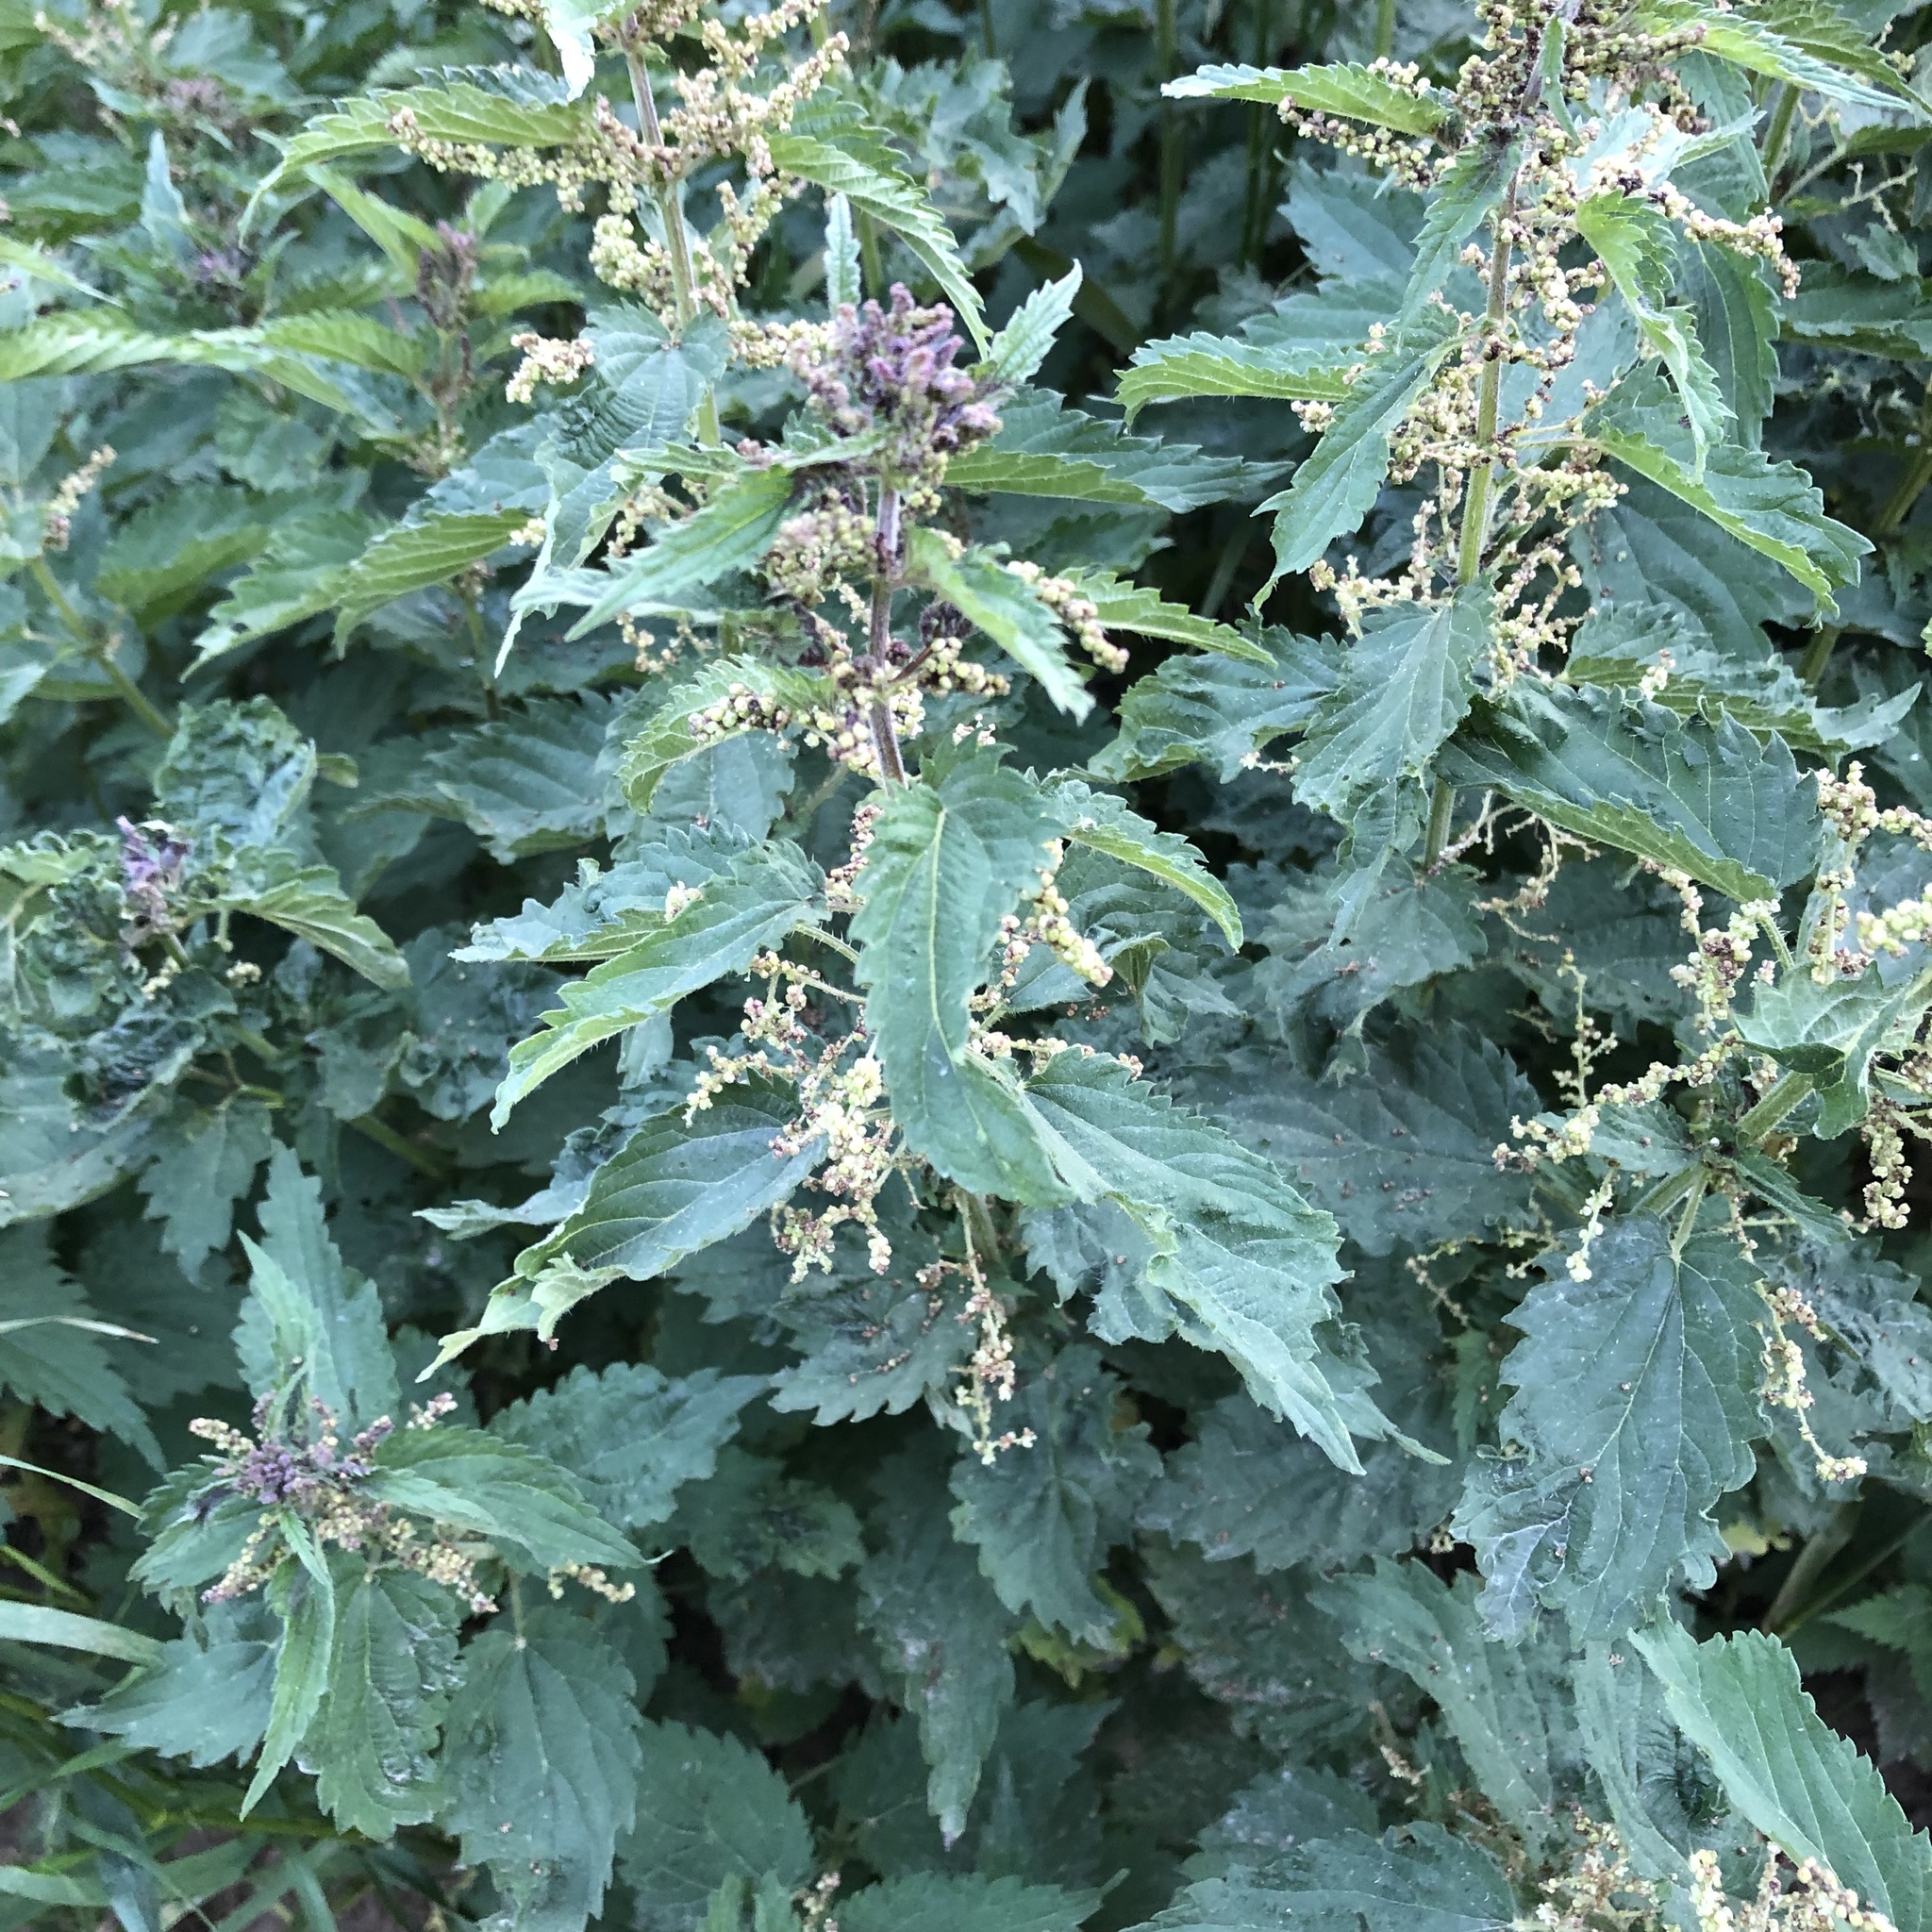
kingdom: Plantae
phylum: Tracheophyta
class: Magnoliopsida
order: Rosales
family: Urticaceae
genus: Urtica
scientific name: Urtica dioica
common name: Common nettle
